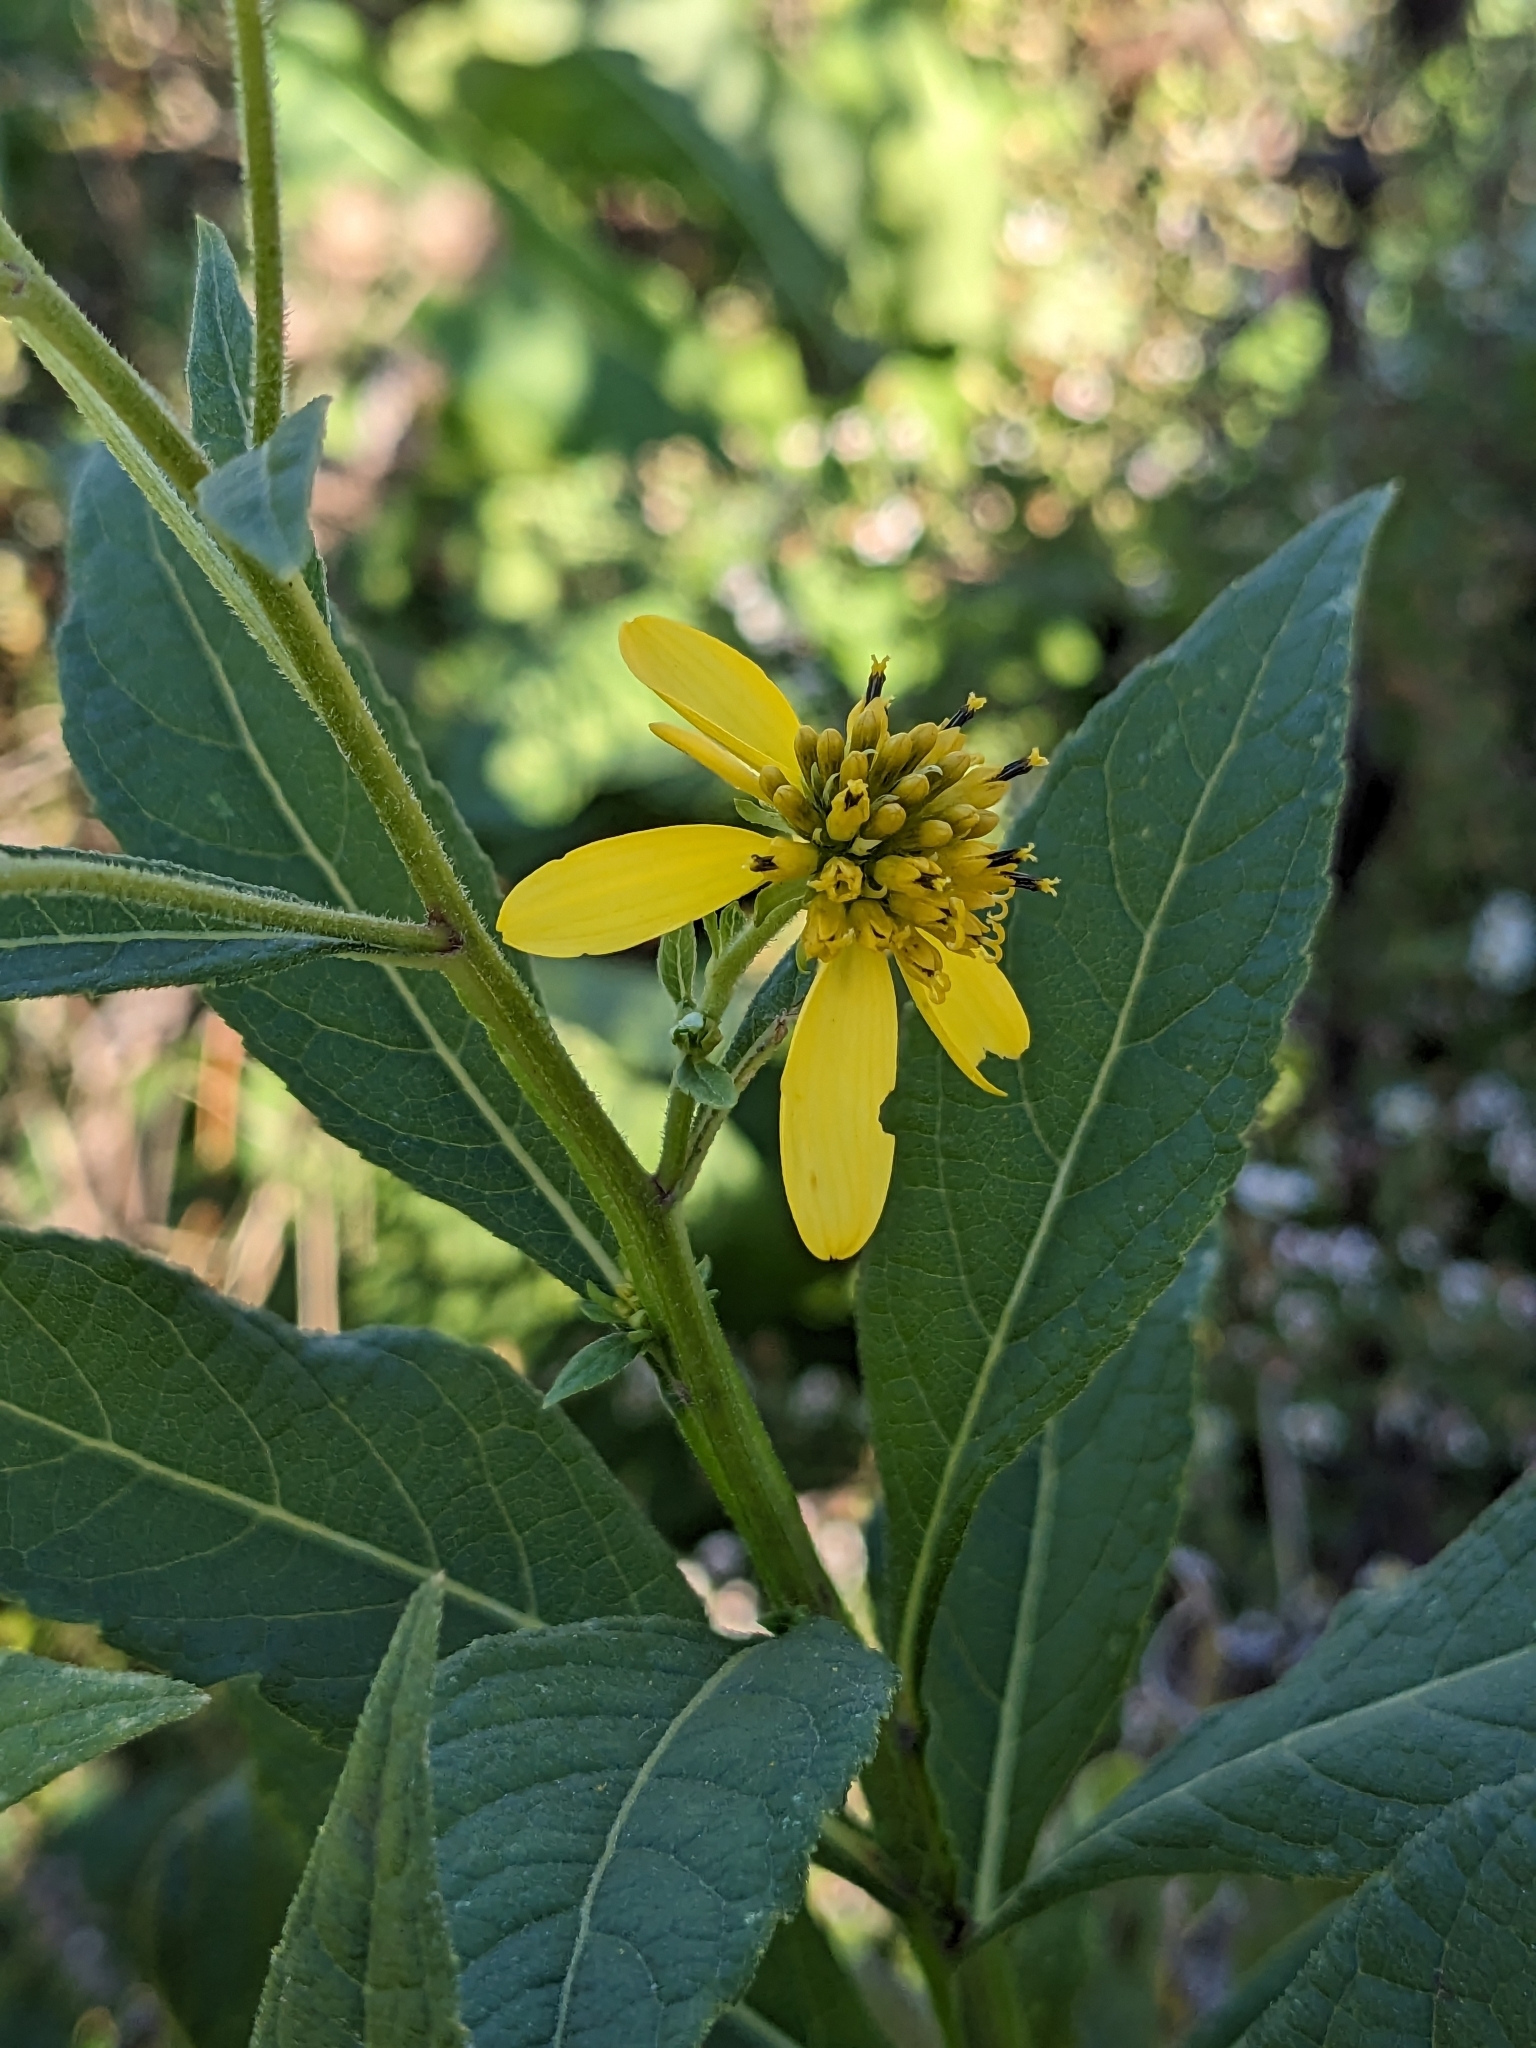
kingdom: Plantae
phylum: Tracheophyta
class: Magnoliopsida
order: Asterales
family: Asteraceae
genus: Verbesina
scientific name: Verbesina alternifolia
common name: Wingstem
